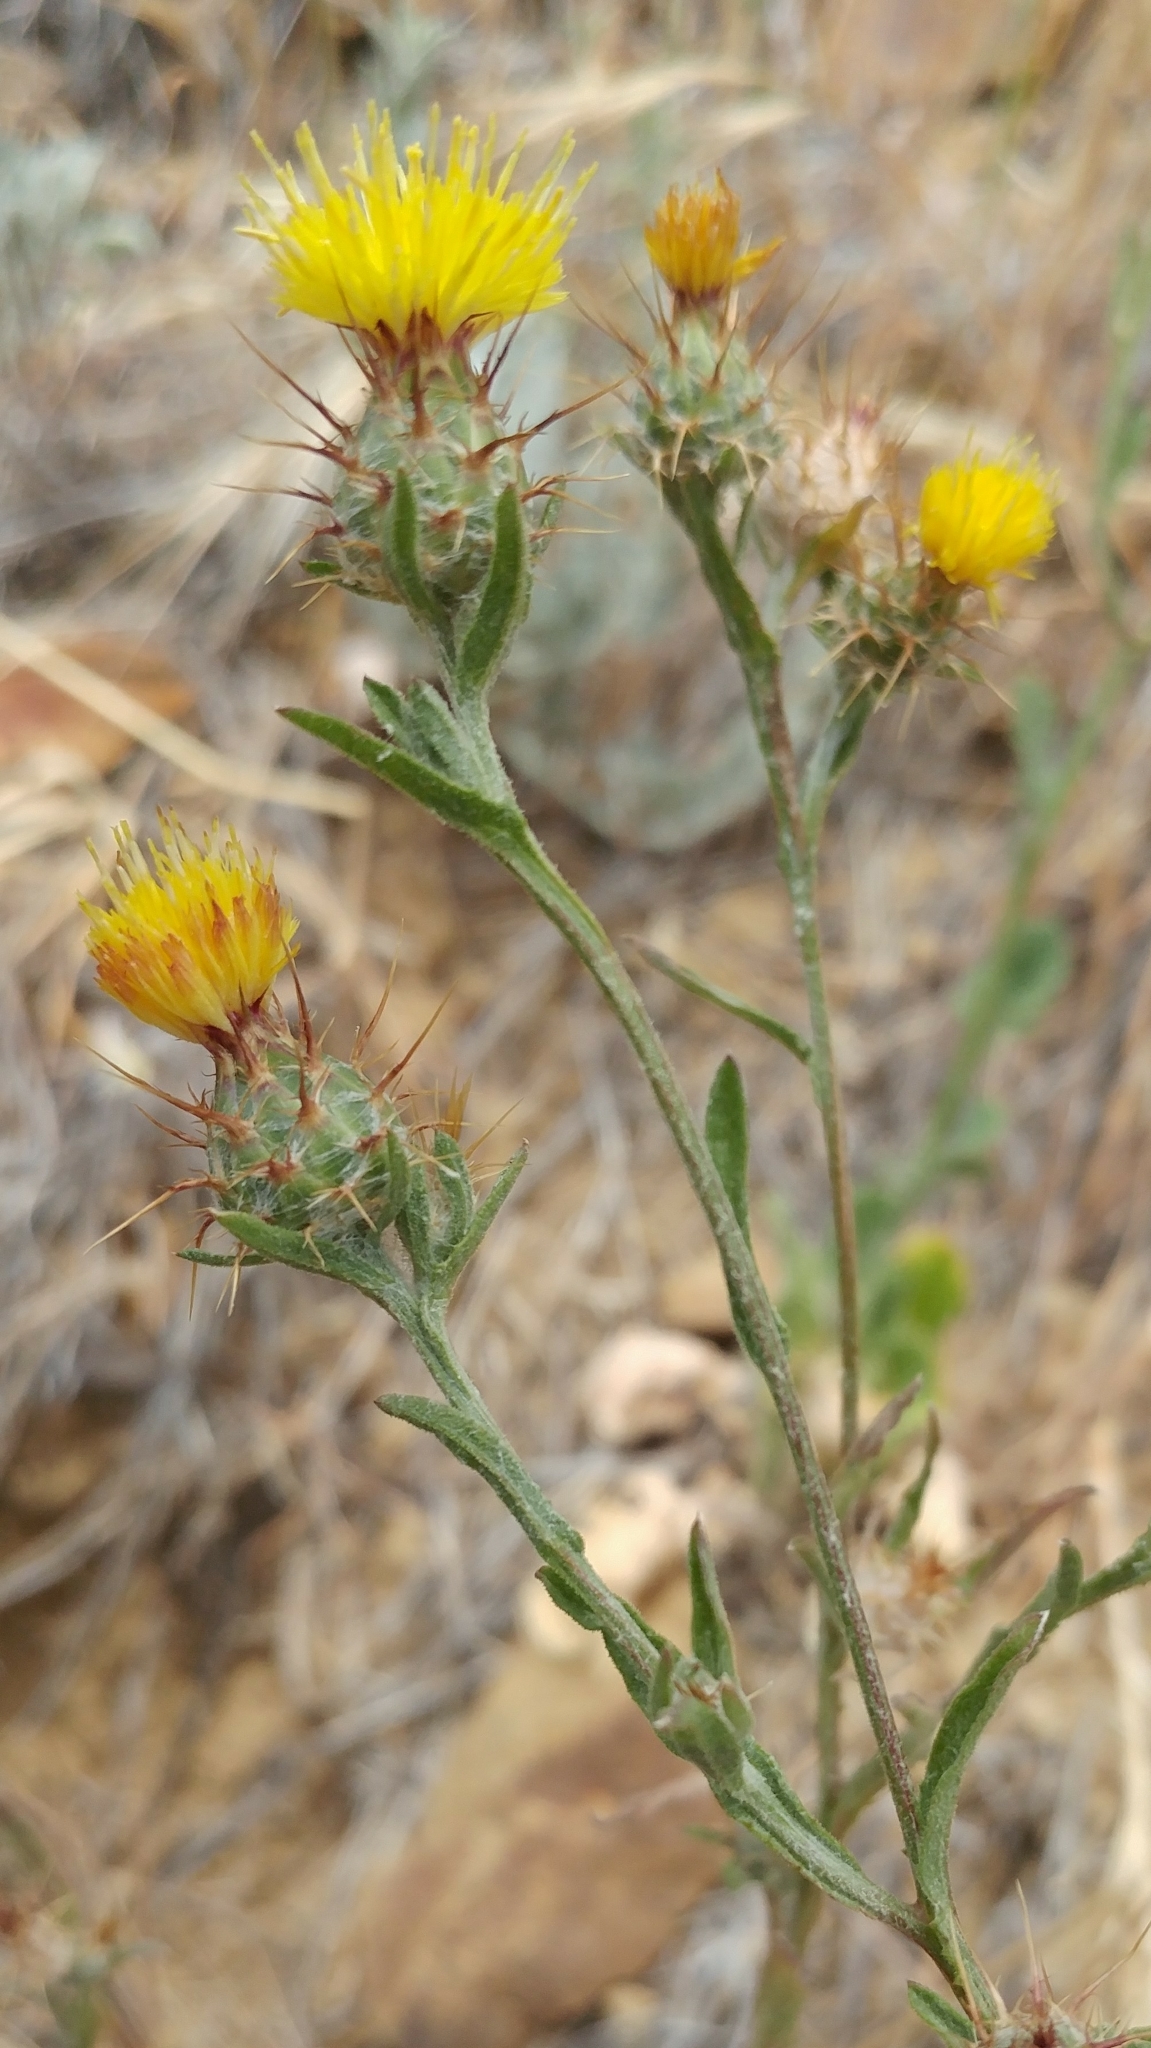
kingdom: Plantae
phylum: Tracheophyta
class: Magnoliopsida
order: Asterales
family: Asteraceae
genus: Centaurea
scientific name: Centaurea melitensis
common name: Maltese star-thistle
